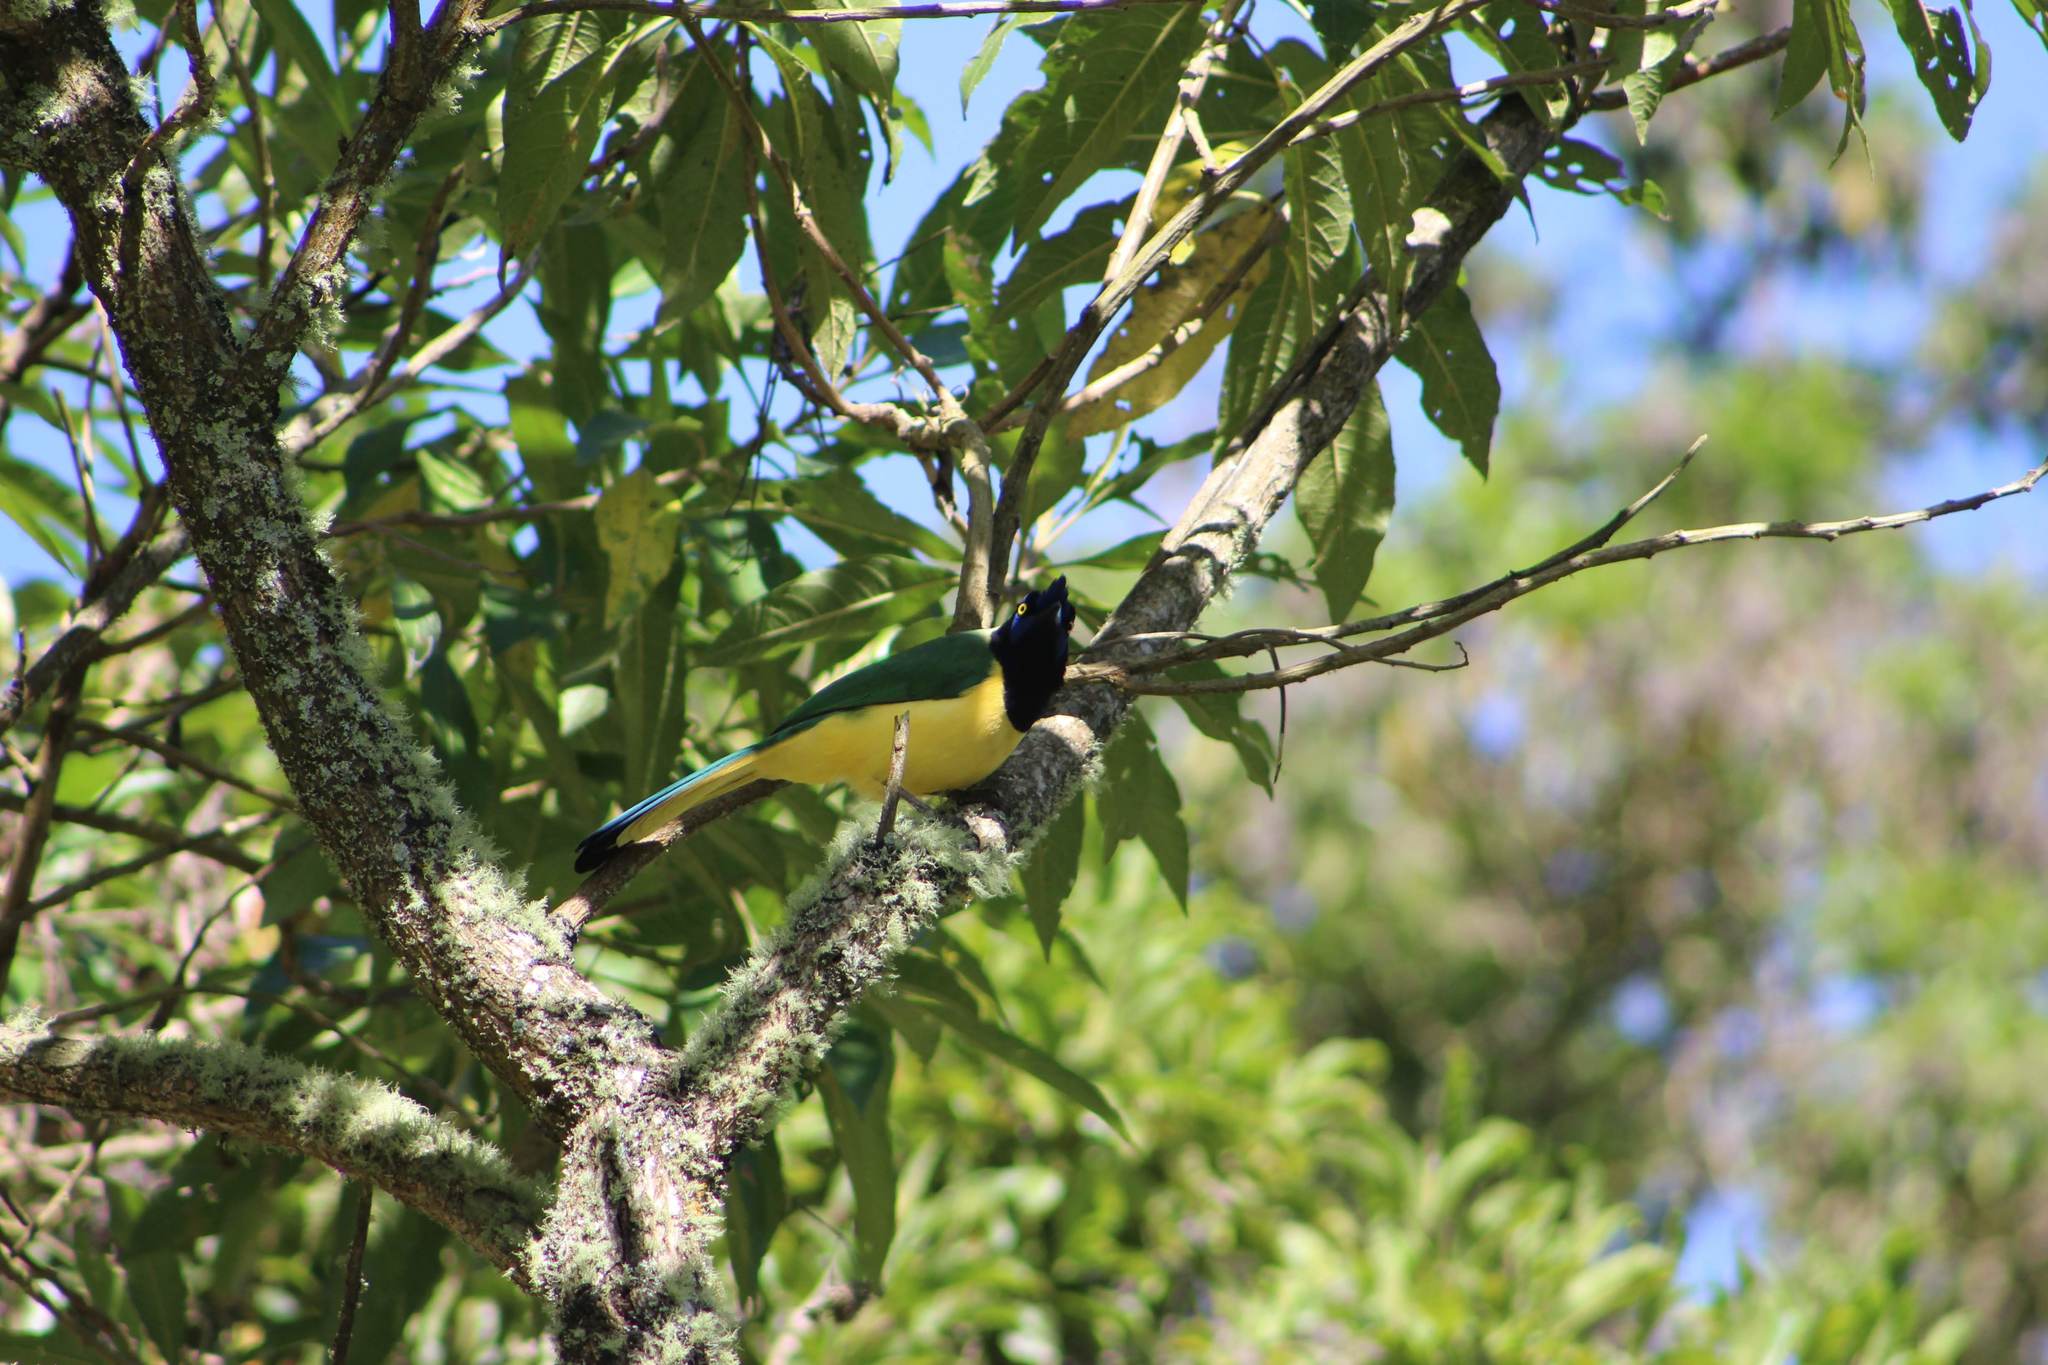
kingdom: Animalia
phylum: Chordata
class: Aves
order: Passeriformes
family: Corvidae
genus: Cyanocorax
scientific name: Cyanocorax yncas
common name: Green jay
